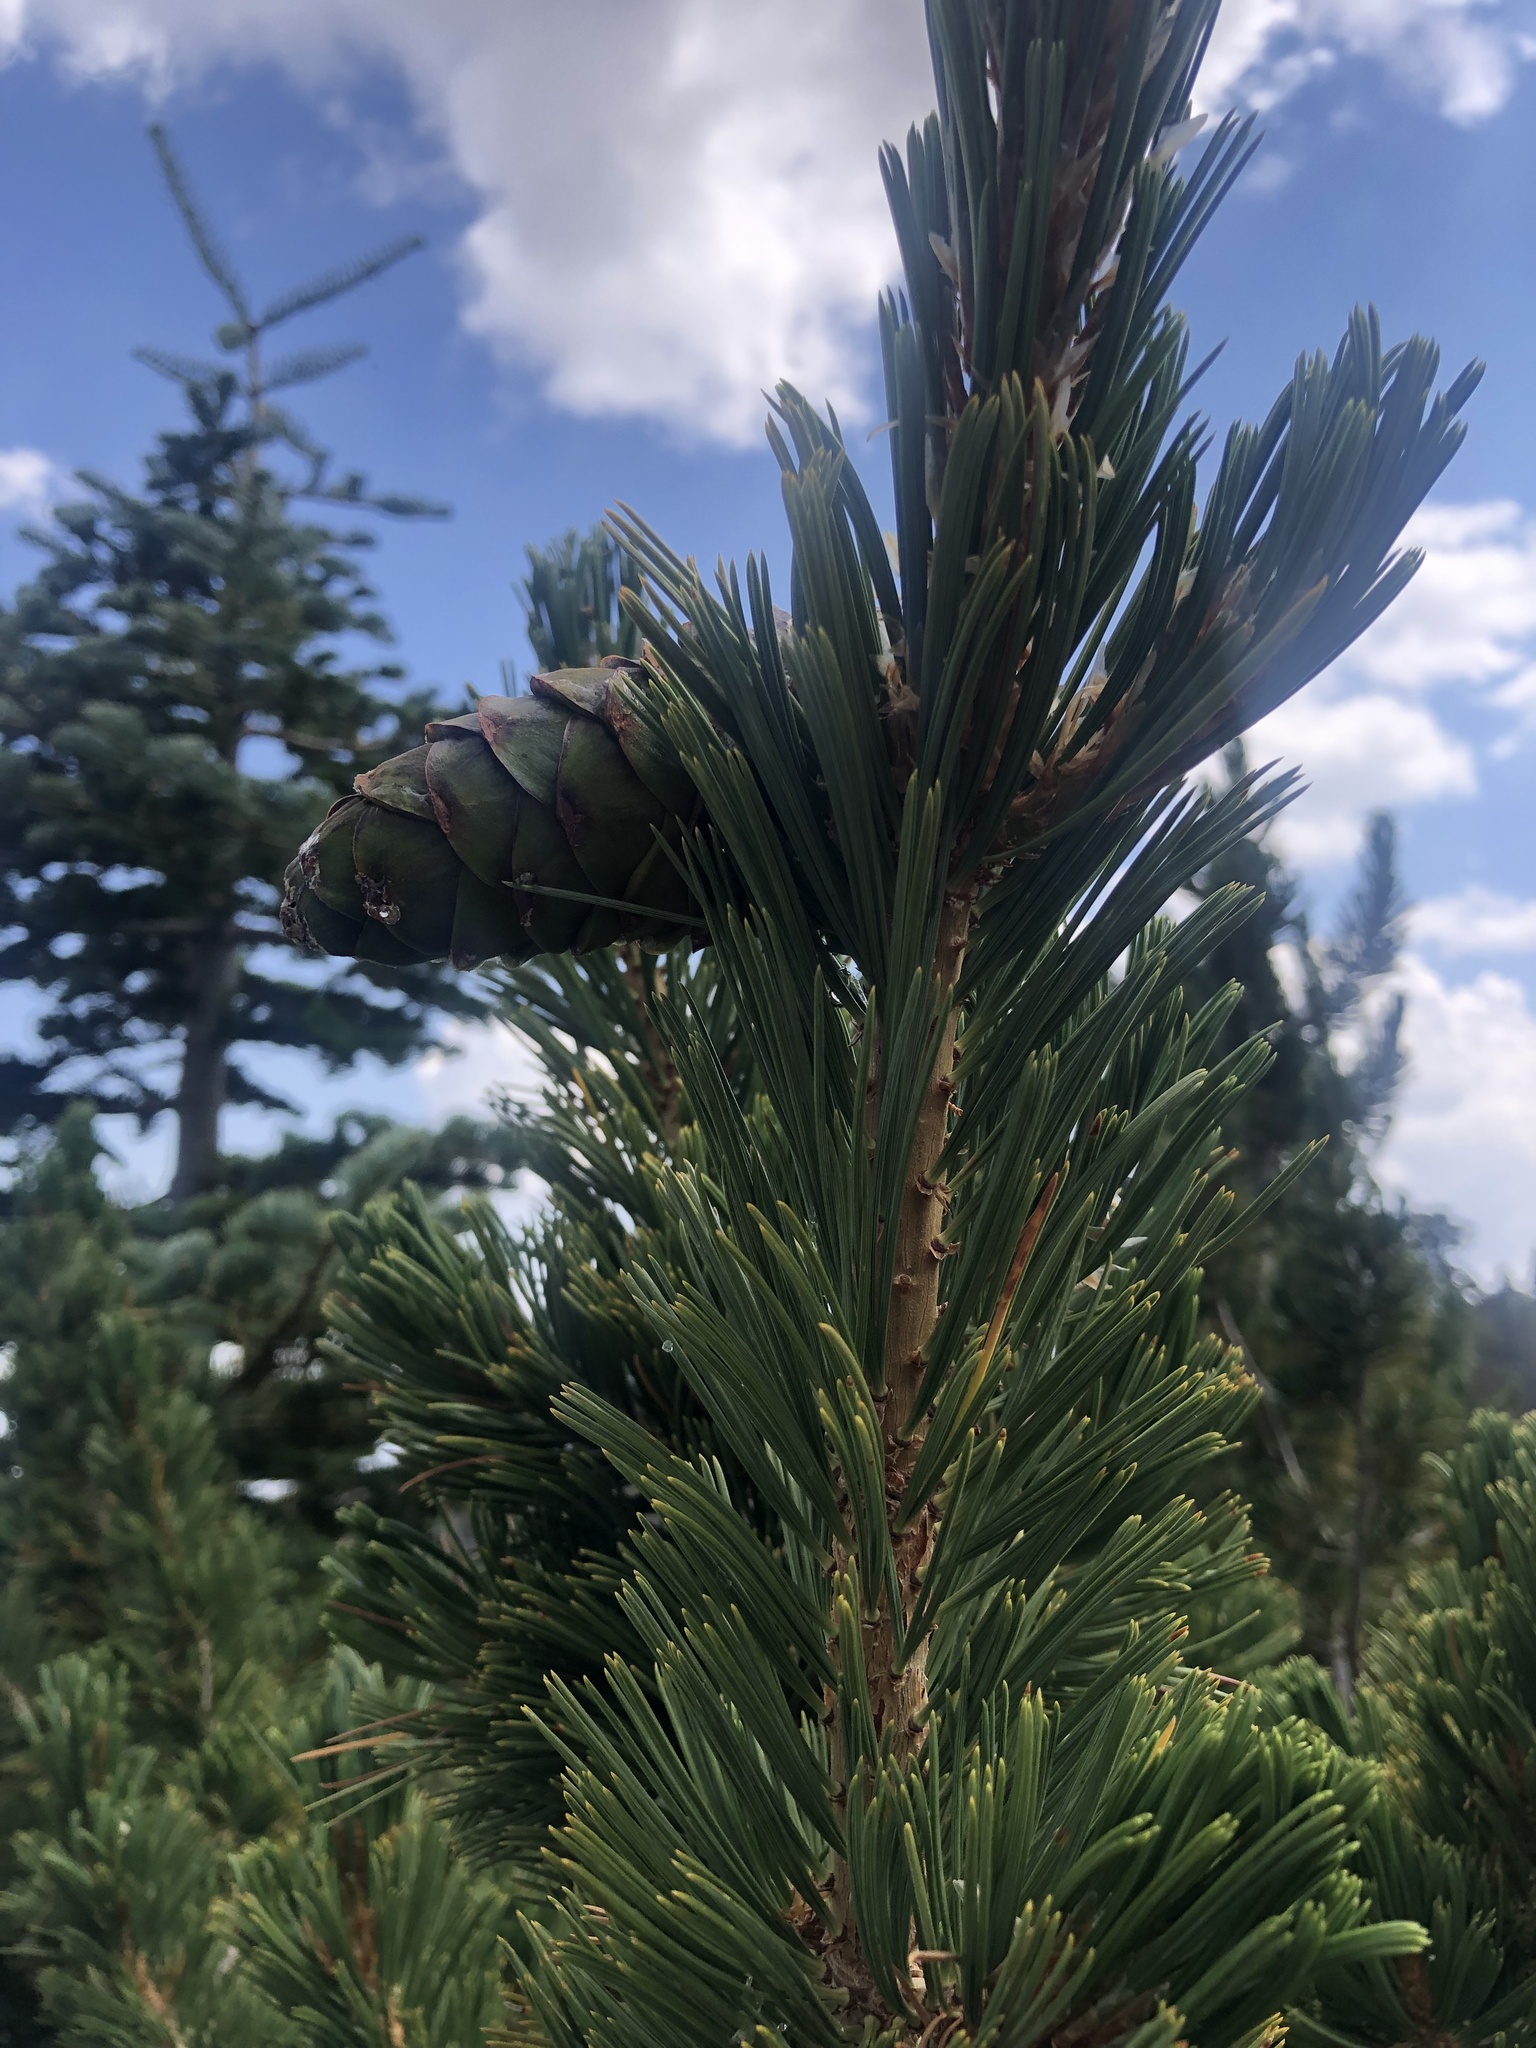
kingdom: Plantae
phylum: Tracheophyta
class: Pinopsida
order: Pinales
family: Pinaceae
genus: Pinus
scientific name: Pinus flexilis
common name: Limber pine
